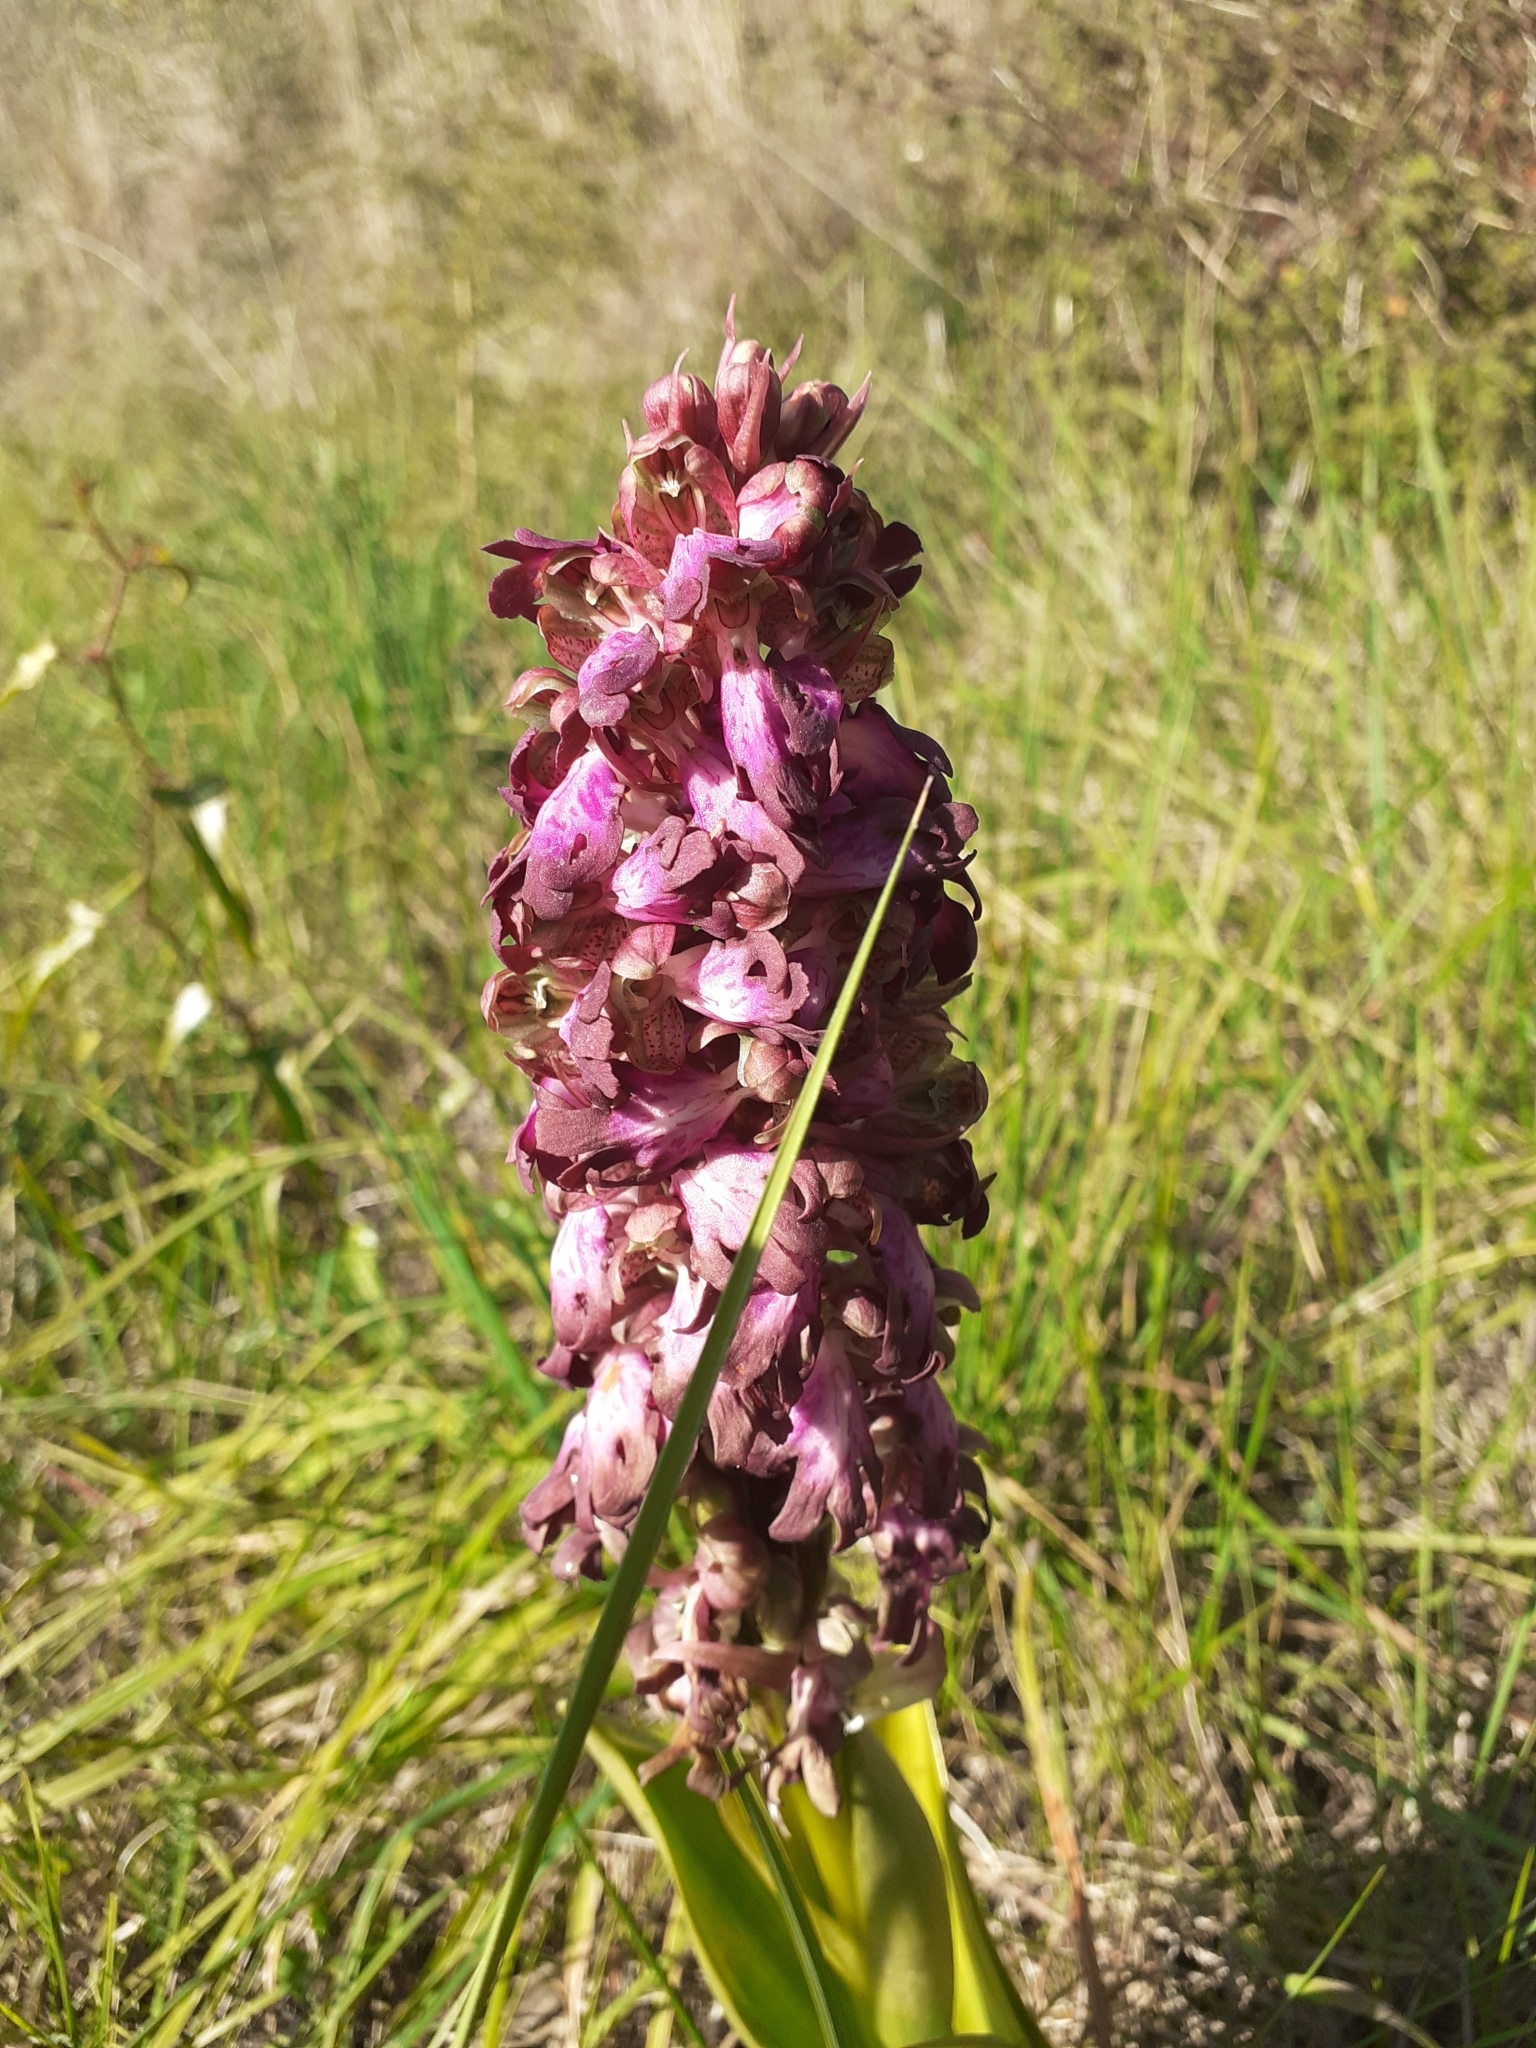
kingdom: Plantae
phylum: Tracheophyta
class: Liliopsida
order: Asparagales
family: Orchidaceae
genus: Himantoglossum
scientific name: Himantoglossum robertianum
